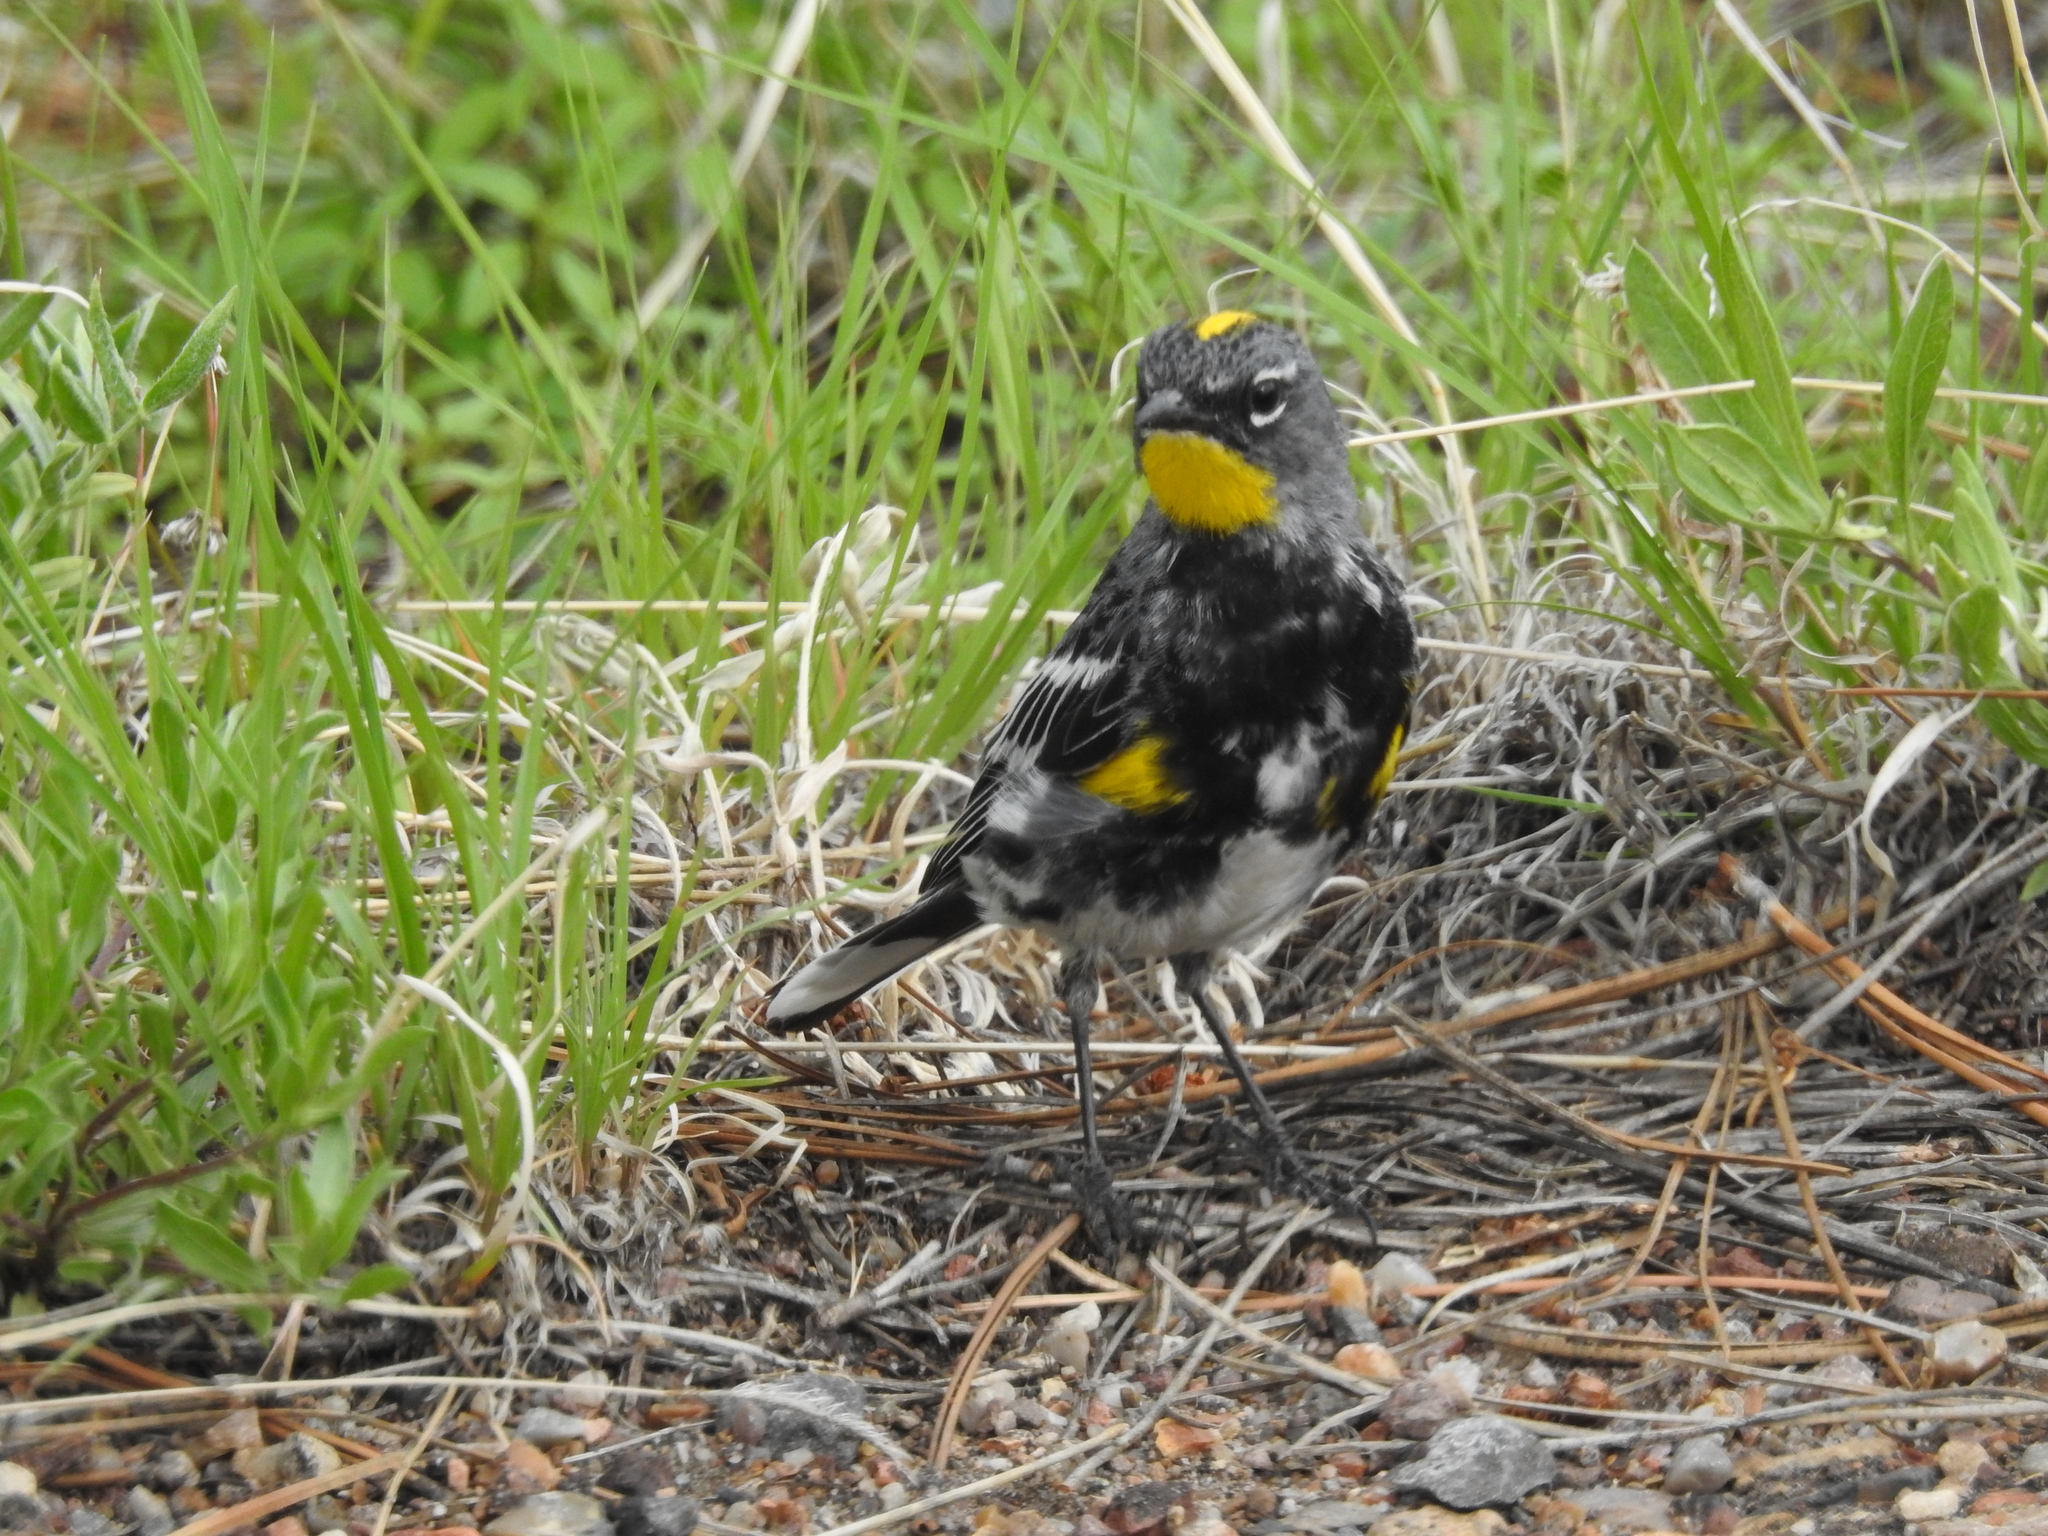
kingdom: Animalia
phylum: Chordata
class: Aves
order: Passeriformes
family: Parulidae
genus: Setophaga
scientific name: Setophaga auduboni
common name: Audubon's warbler
